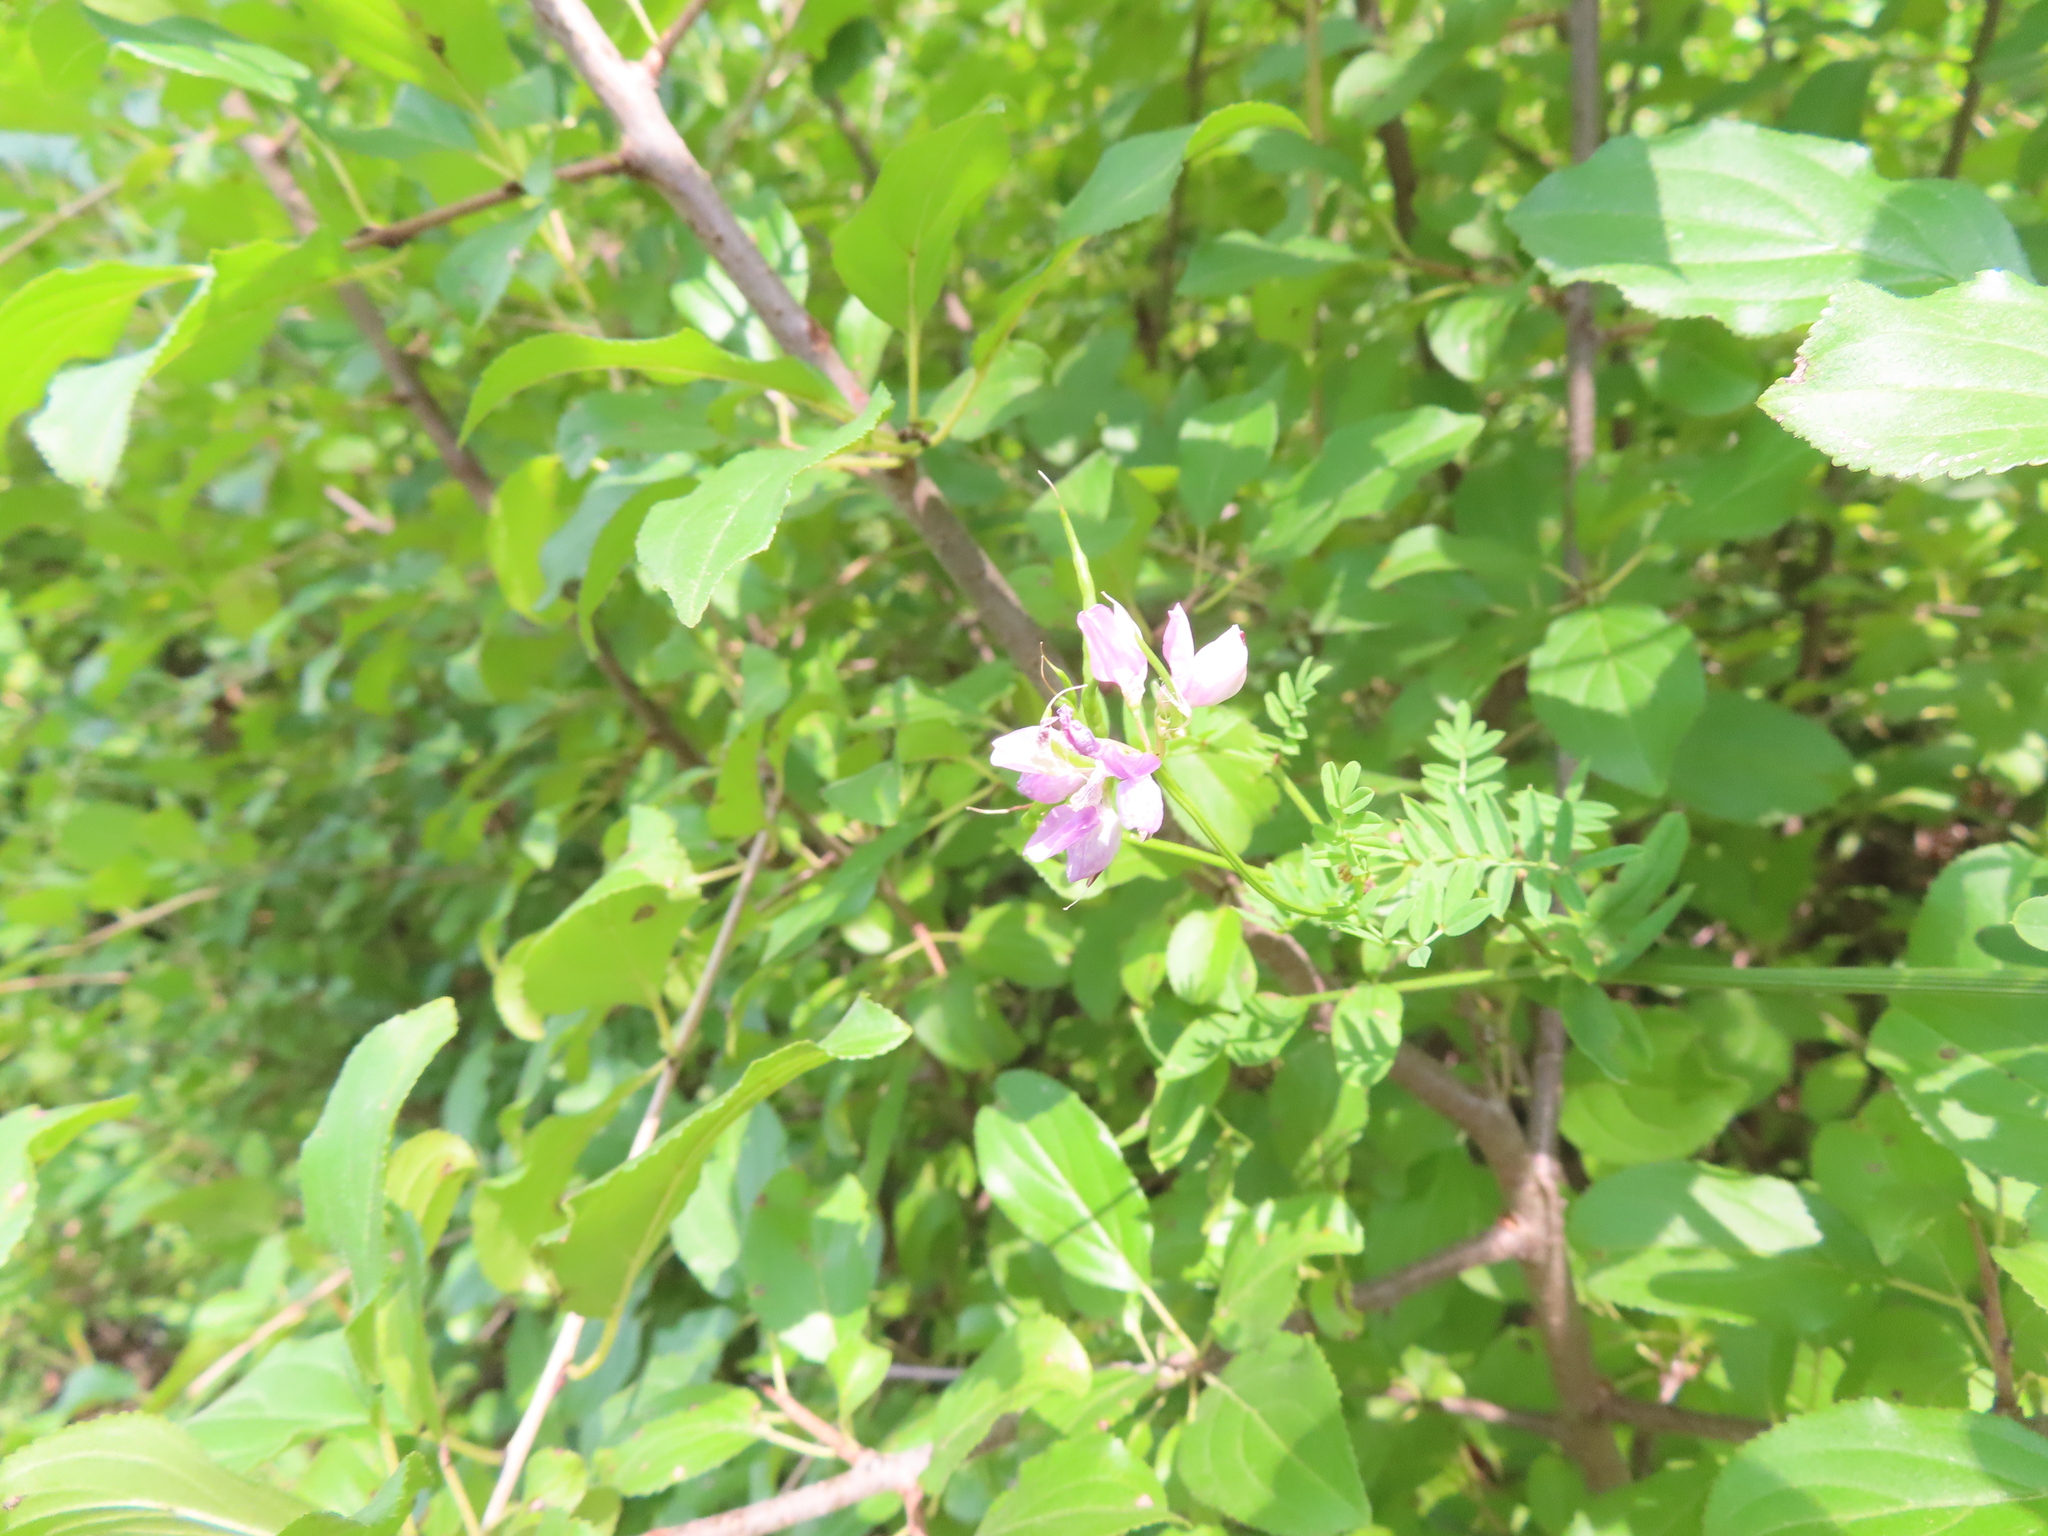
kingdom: Plantae
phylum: Tracheophyta
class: Magnoliopsida
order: Fabales
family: Fabaceae
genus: Coronilla
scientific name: Coronilla varia
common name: Crownvetch
